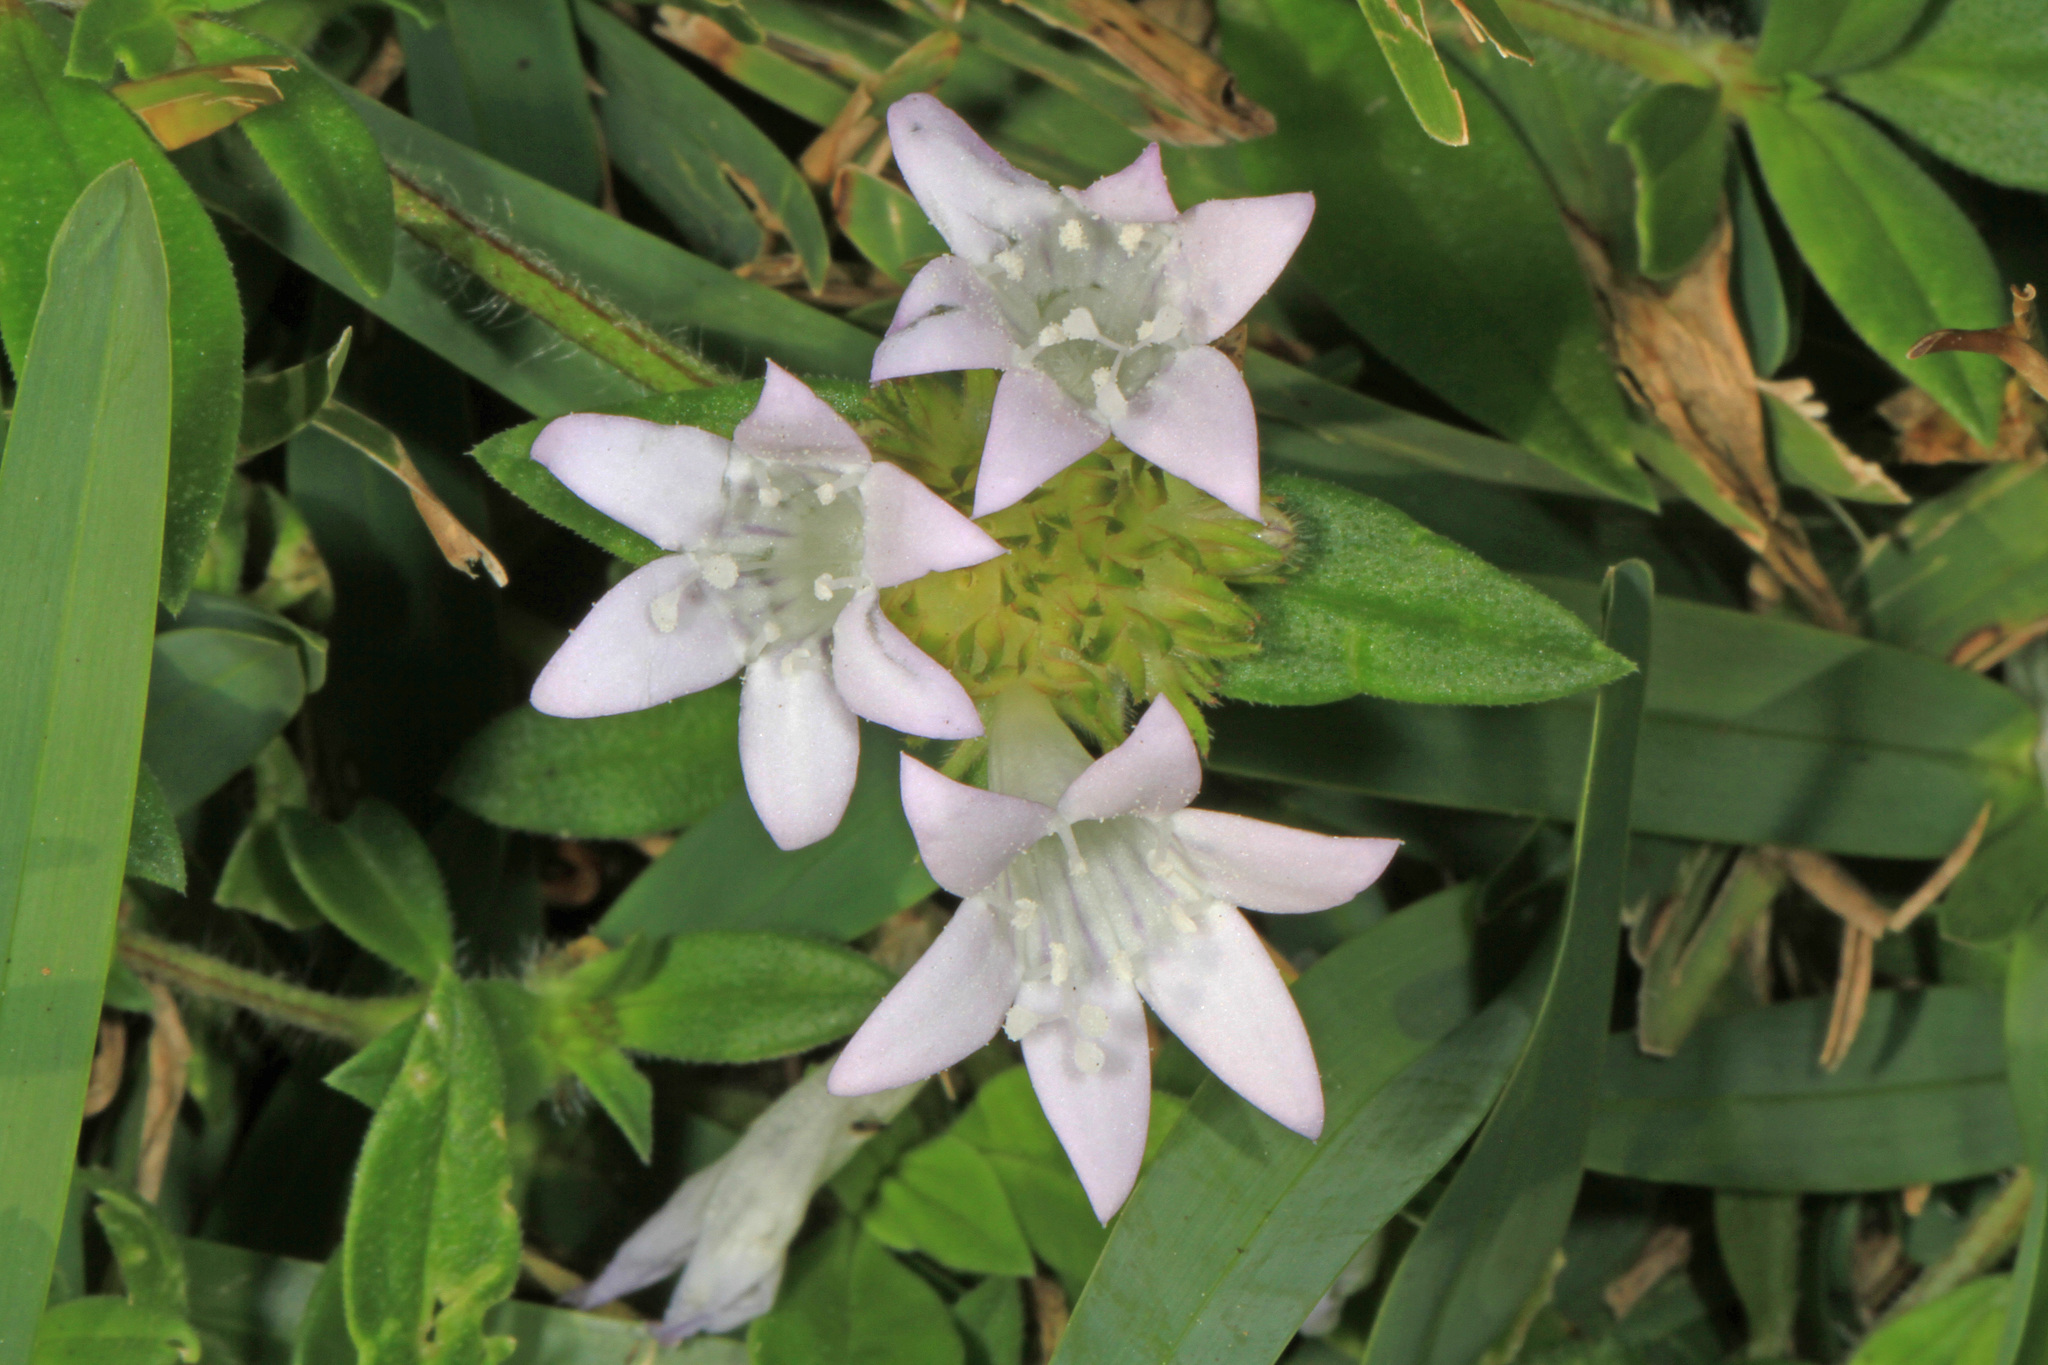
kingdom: Plantae
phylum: Tracheophyta
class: Magnoliopsida
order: Gentianales
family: Rubiaceae
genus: Richardia
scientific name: Richardia grandiflora
